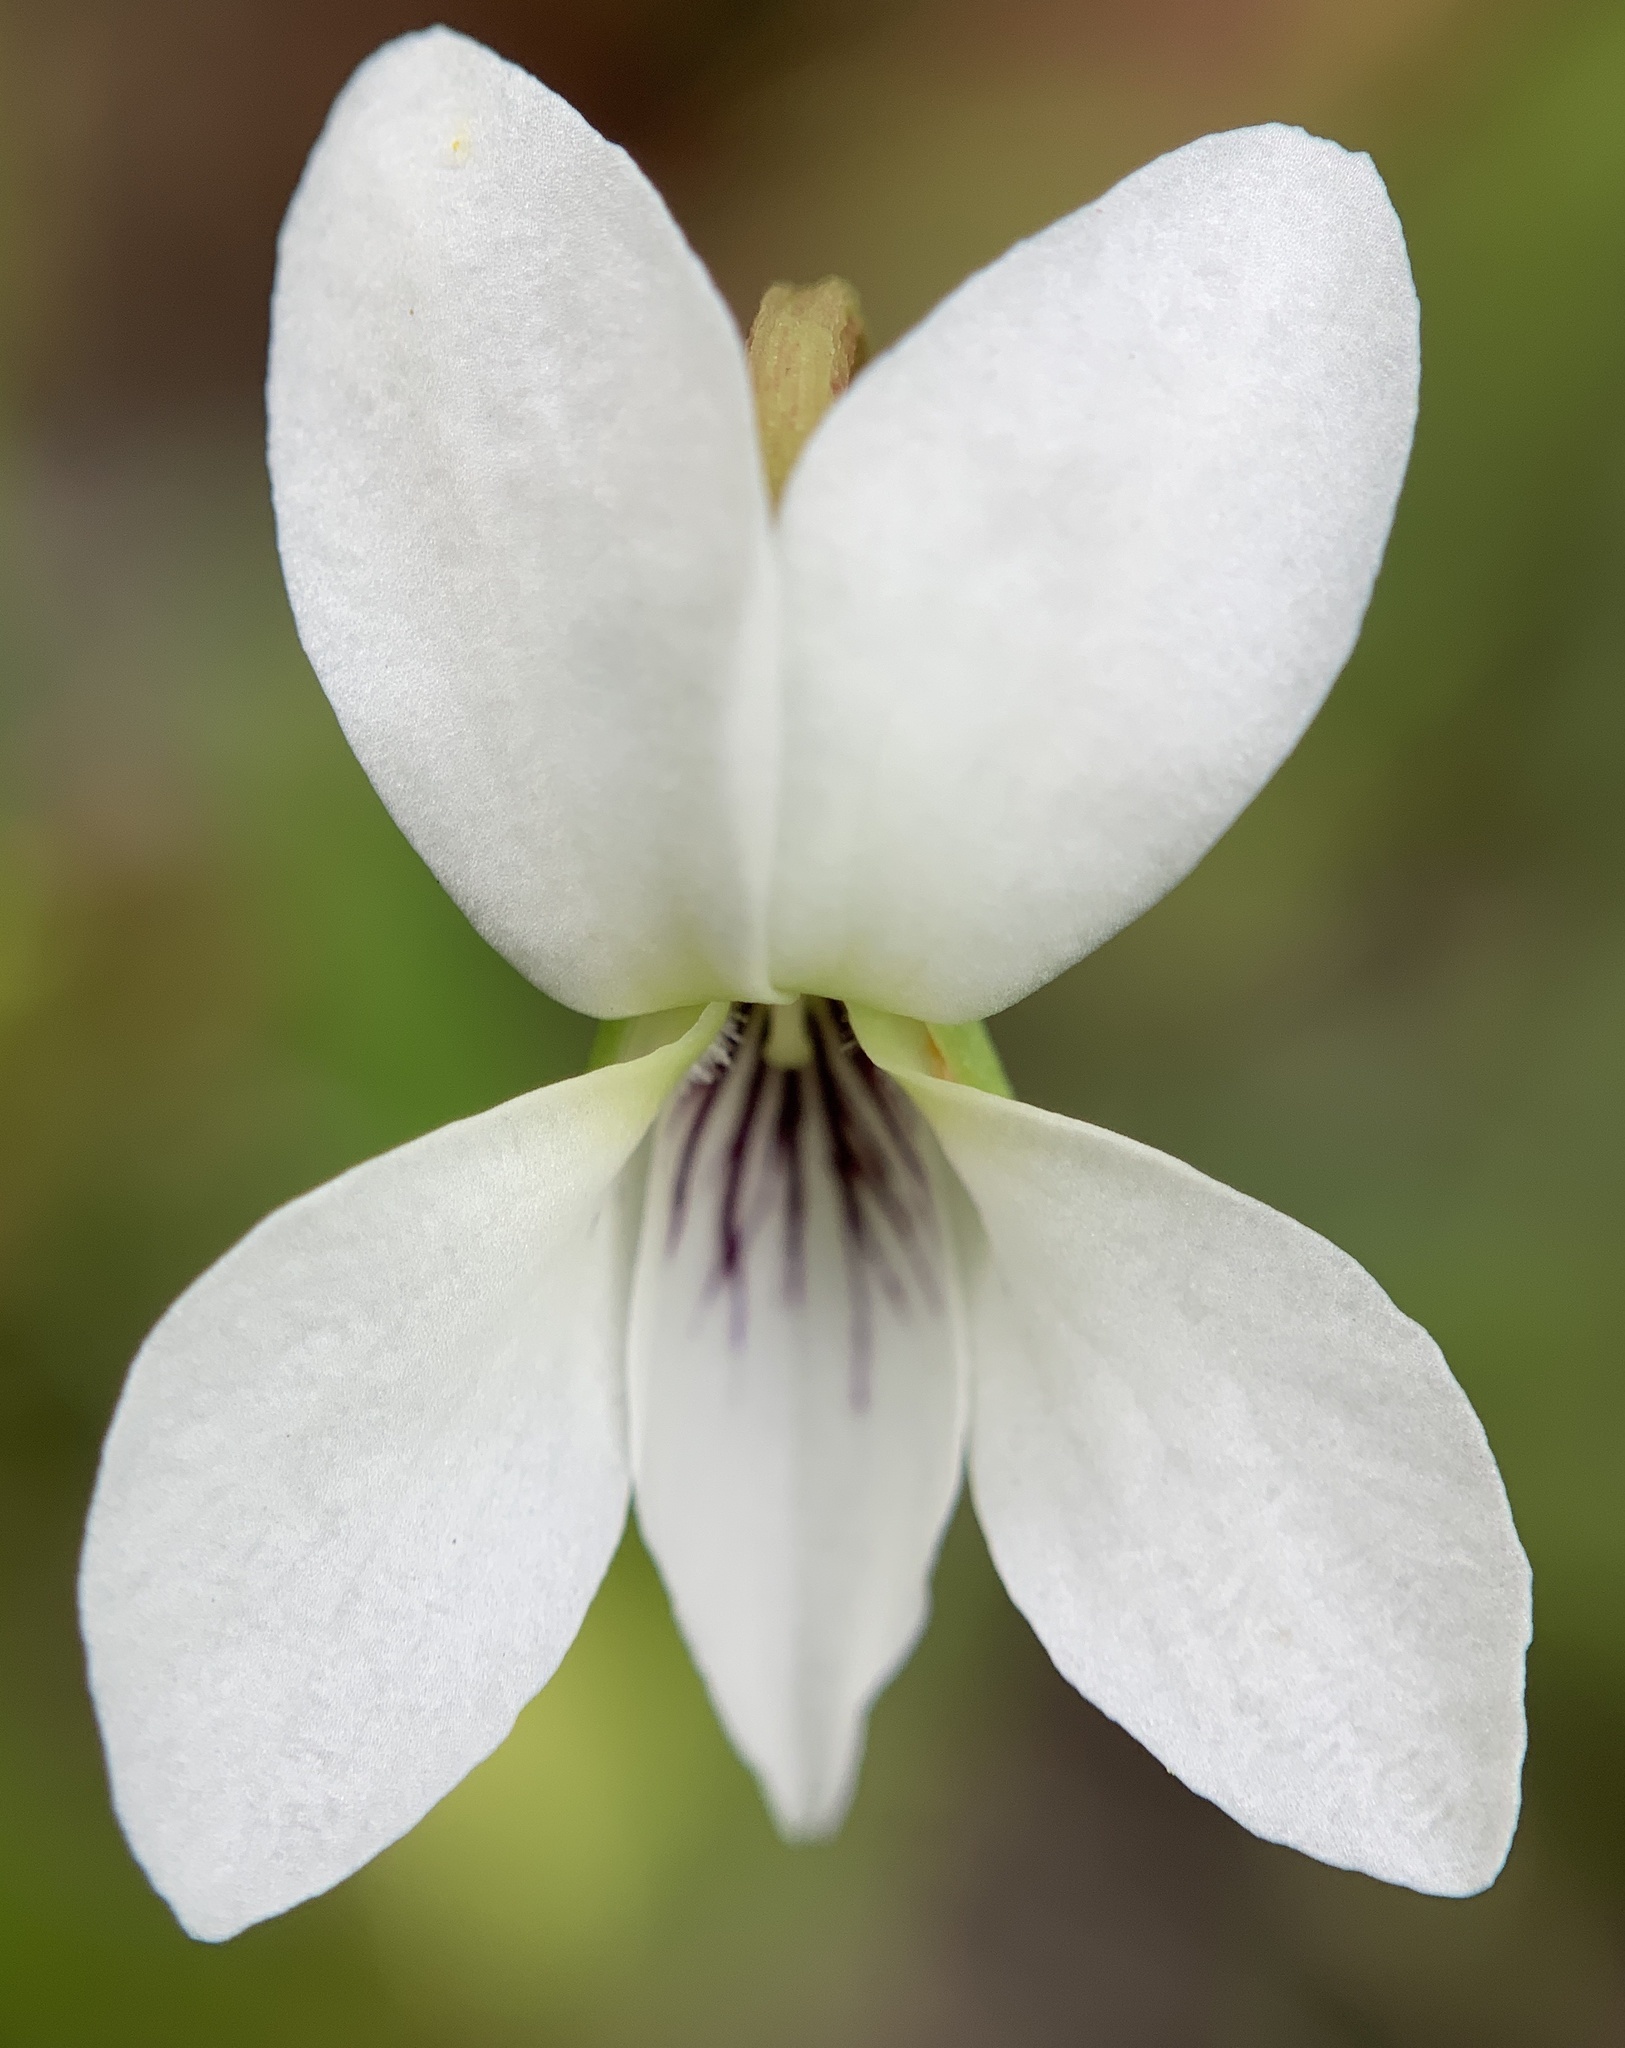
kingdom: Plantae
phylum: Tracheophyta
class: Magnoliopsida
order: Malpighiales
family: Violaceae
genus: Viola
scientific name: Viola lanceolata
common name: Bog white violet
